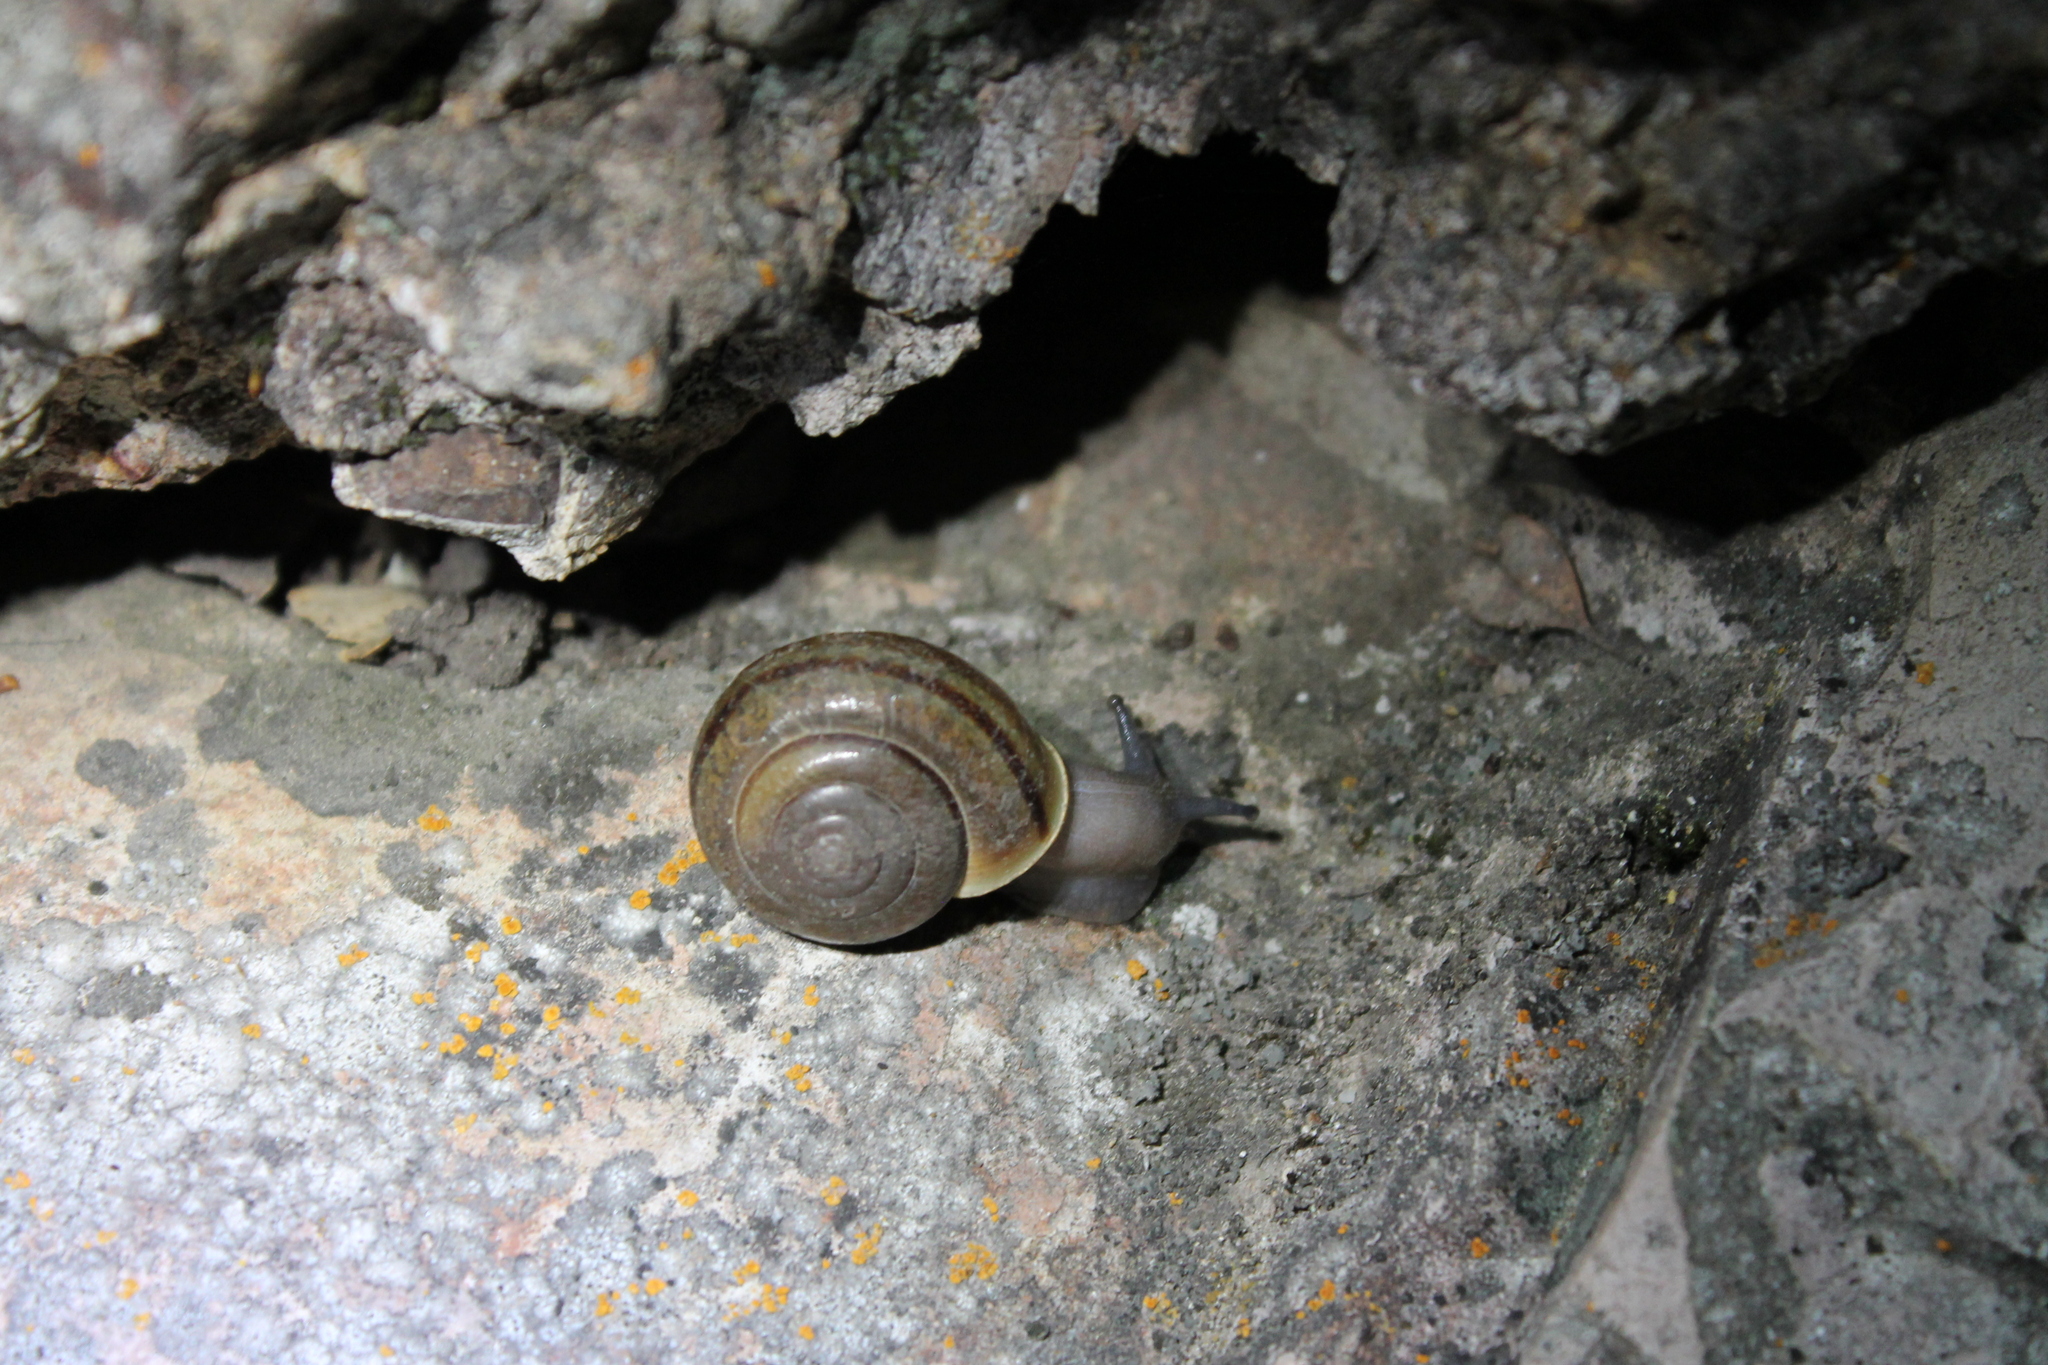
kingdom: Animalia
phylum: Mollusca
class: Gastropoda
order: Stylommatophora
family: Xanthonychidae
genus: Helminthoglypta
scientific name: Helminthoglypta benitoensis
